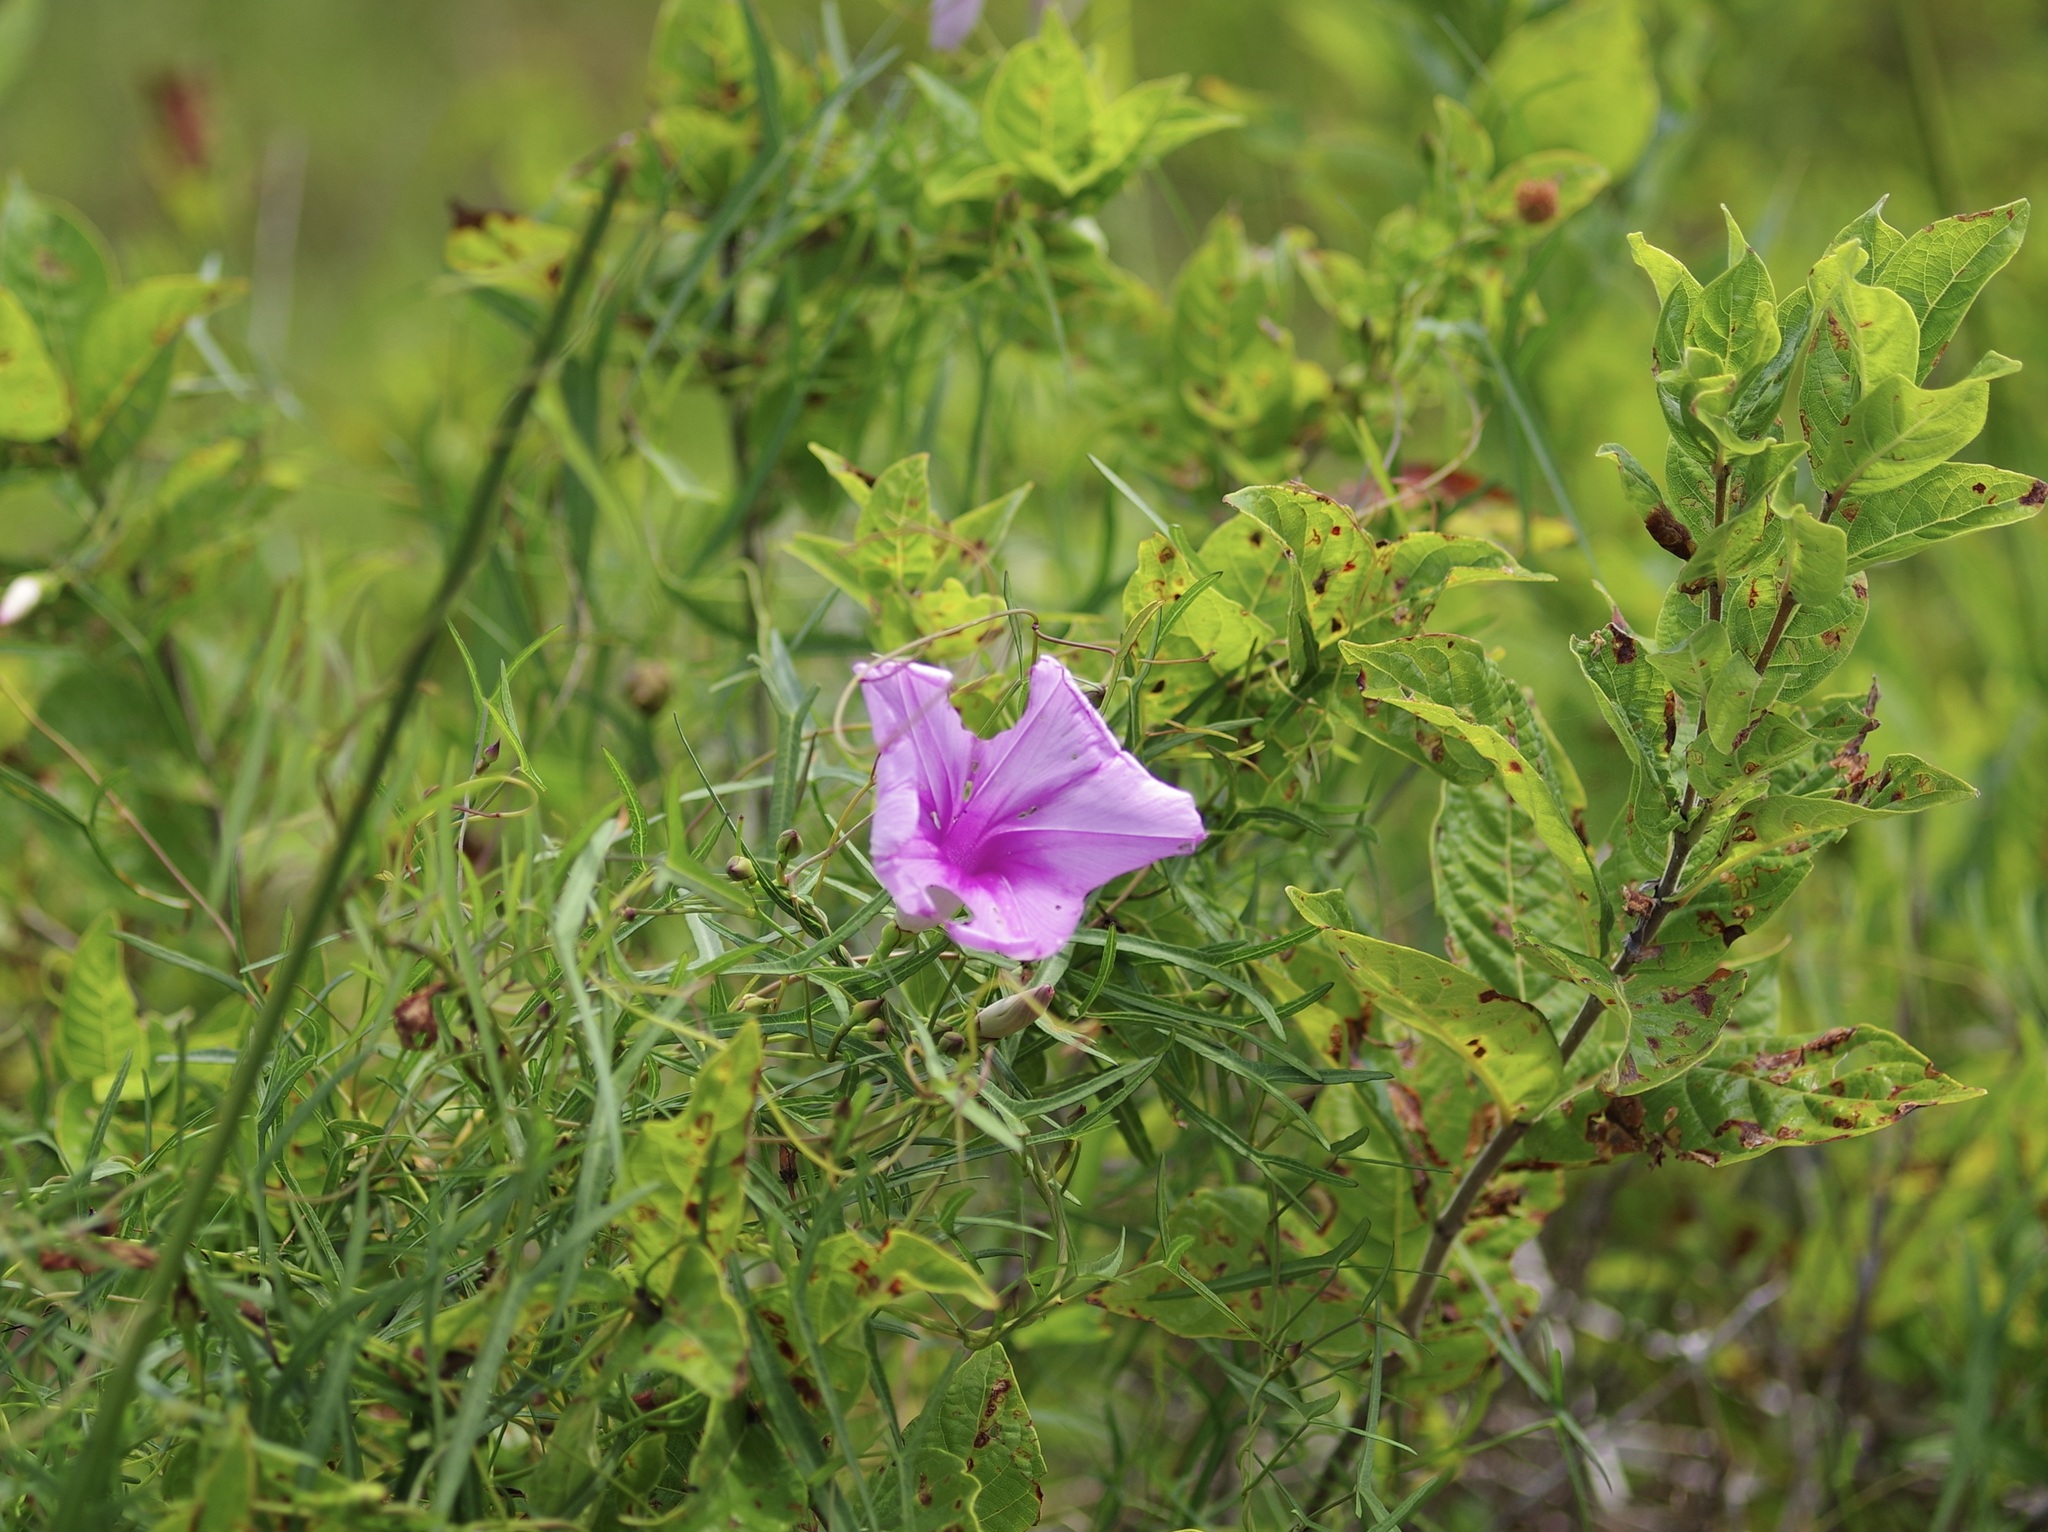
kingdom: Plantae
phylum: Tracheophyta
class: Magnoliopsida
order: Solanales
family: Convolvulaceae
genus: Ipomoea
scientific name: Ipomoea sagittata
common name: Saltmarsh morning glory
